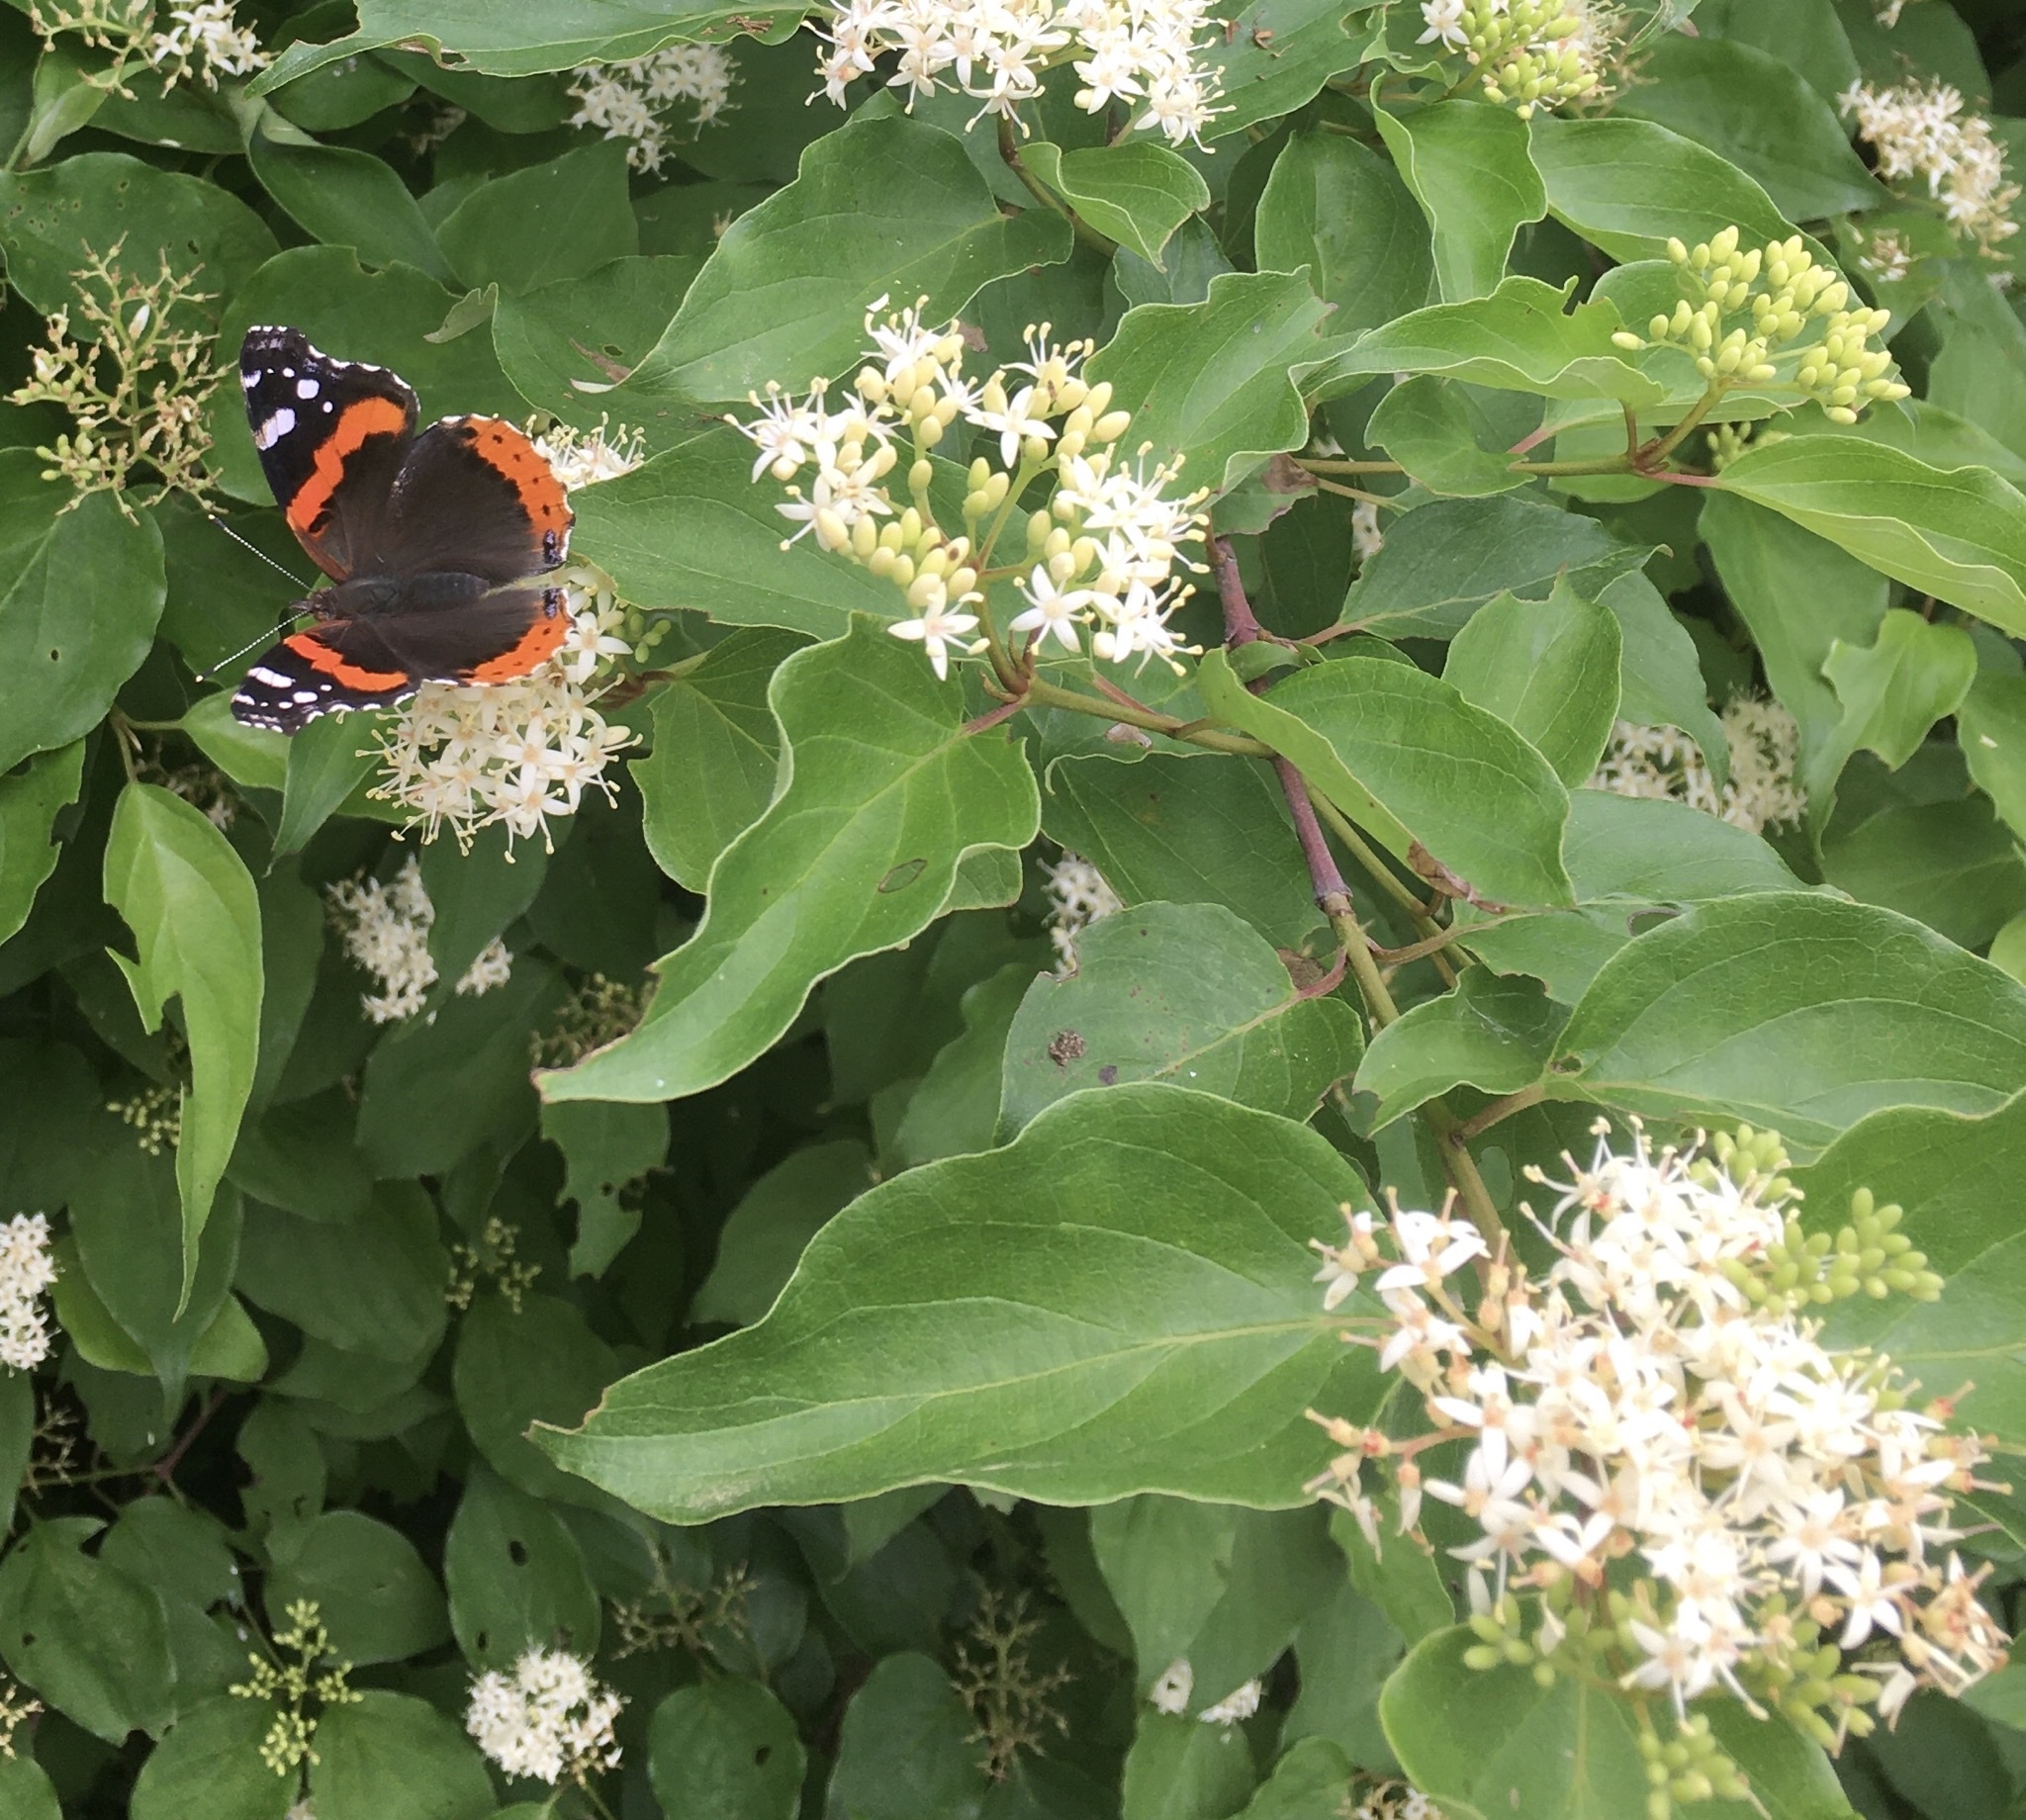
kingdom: Animalia
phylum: Arthropoda
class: Insecta
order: Lepidoptera
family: Nymphalidae
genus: Vanessa
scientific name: Vanessa atalanta
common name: Red admiral
